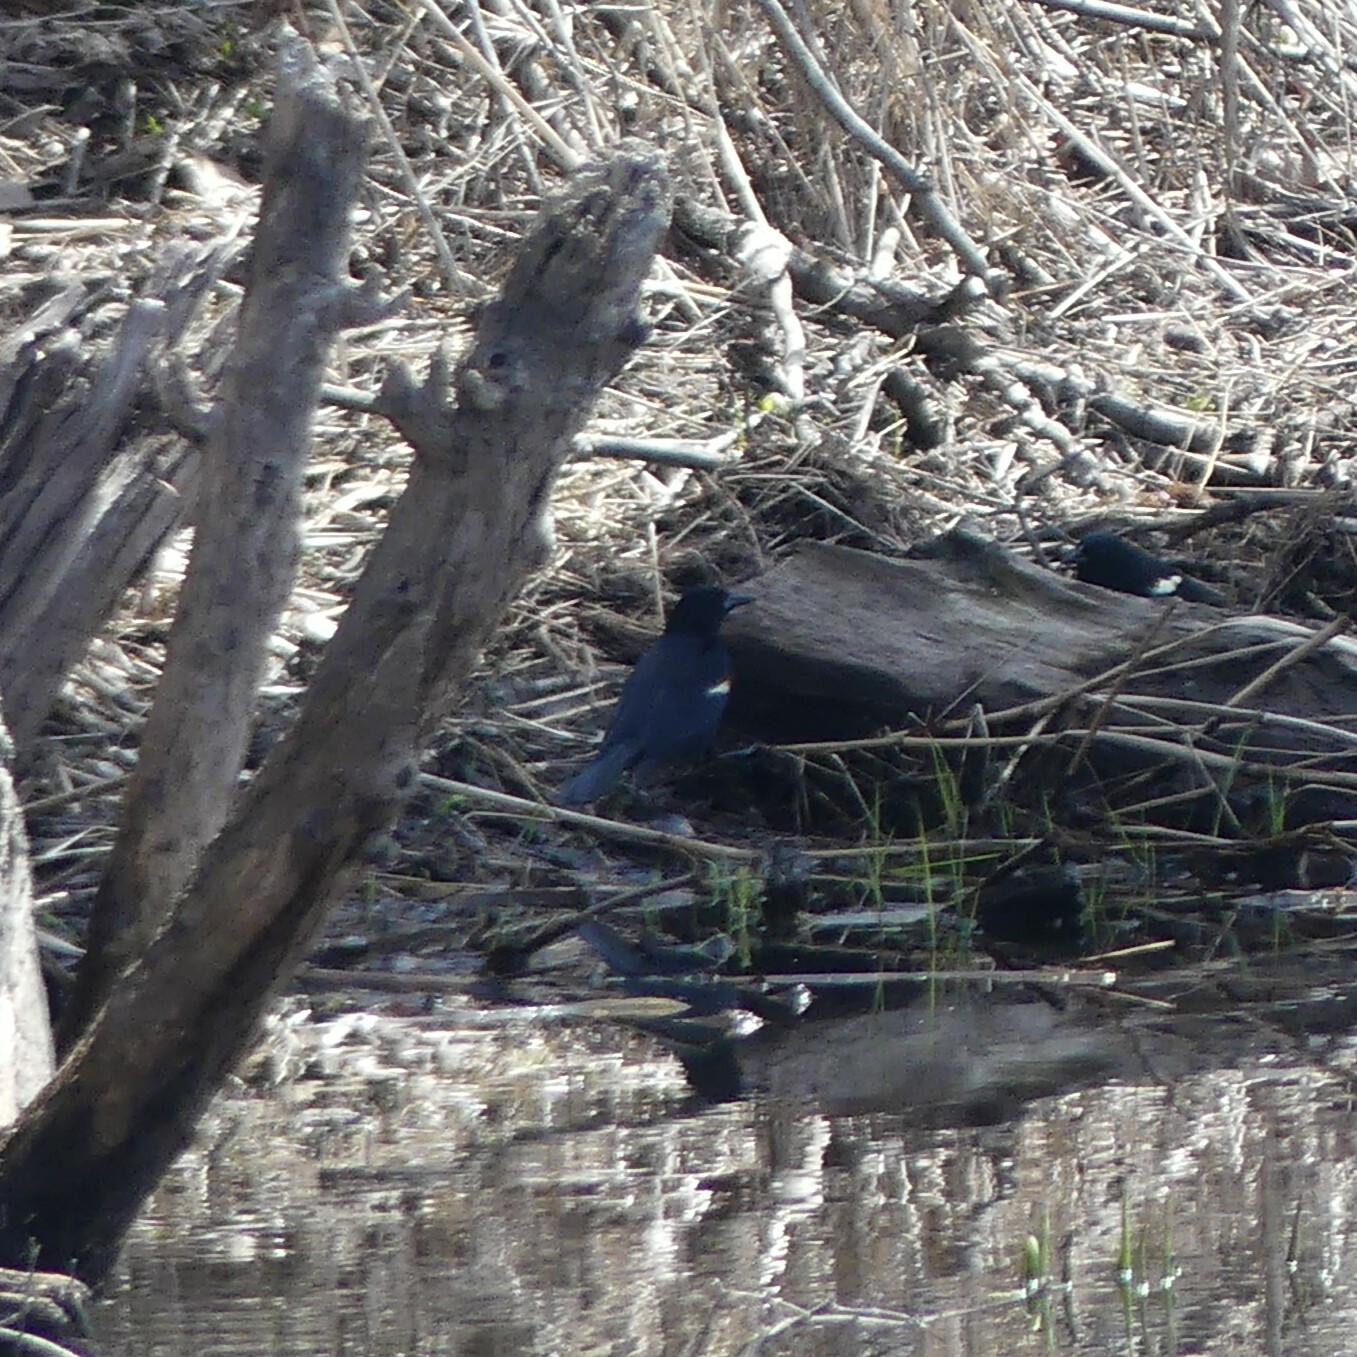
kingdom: Animalia
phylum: Chordata
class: Aves
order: Passeriformes
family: Icteridae
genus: Agelaius
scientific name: Agelaius phoeniceus
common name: Red-winged blackbird
